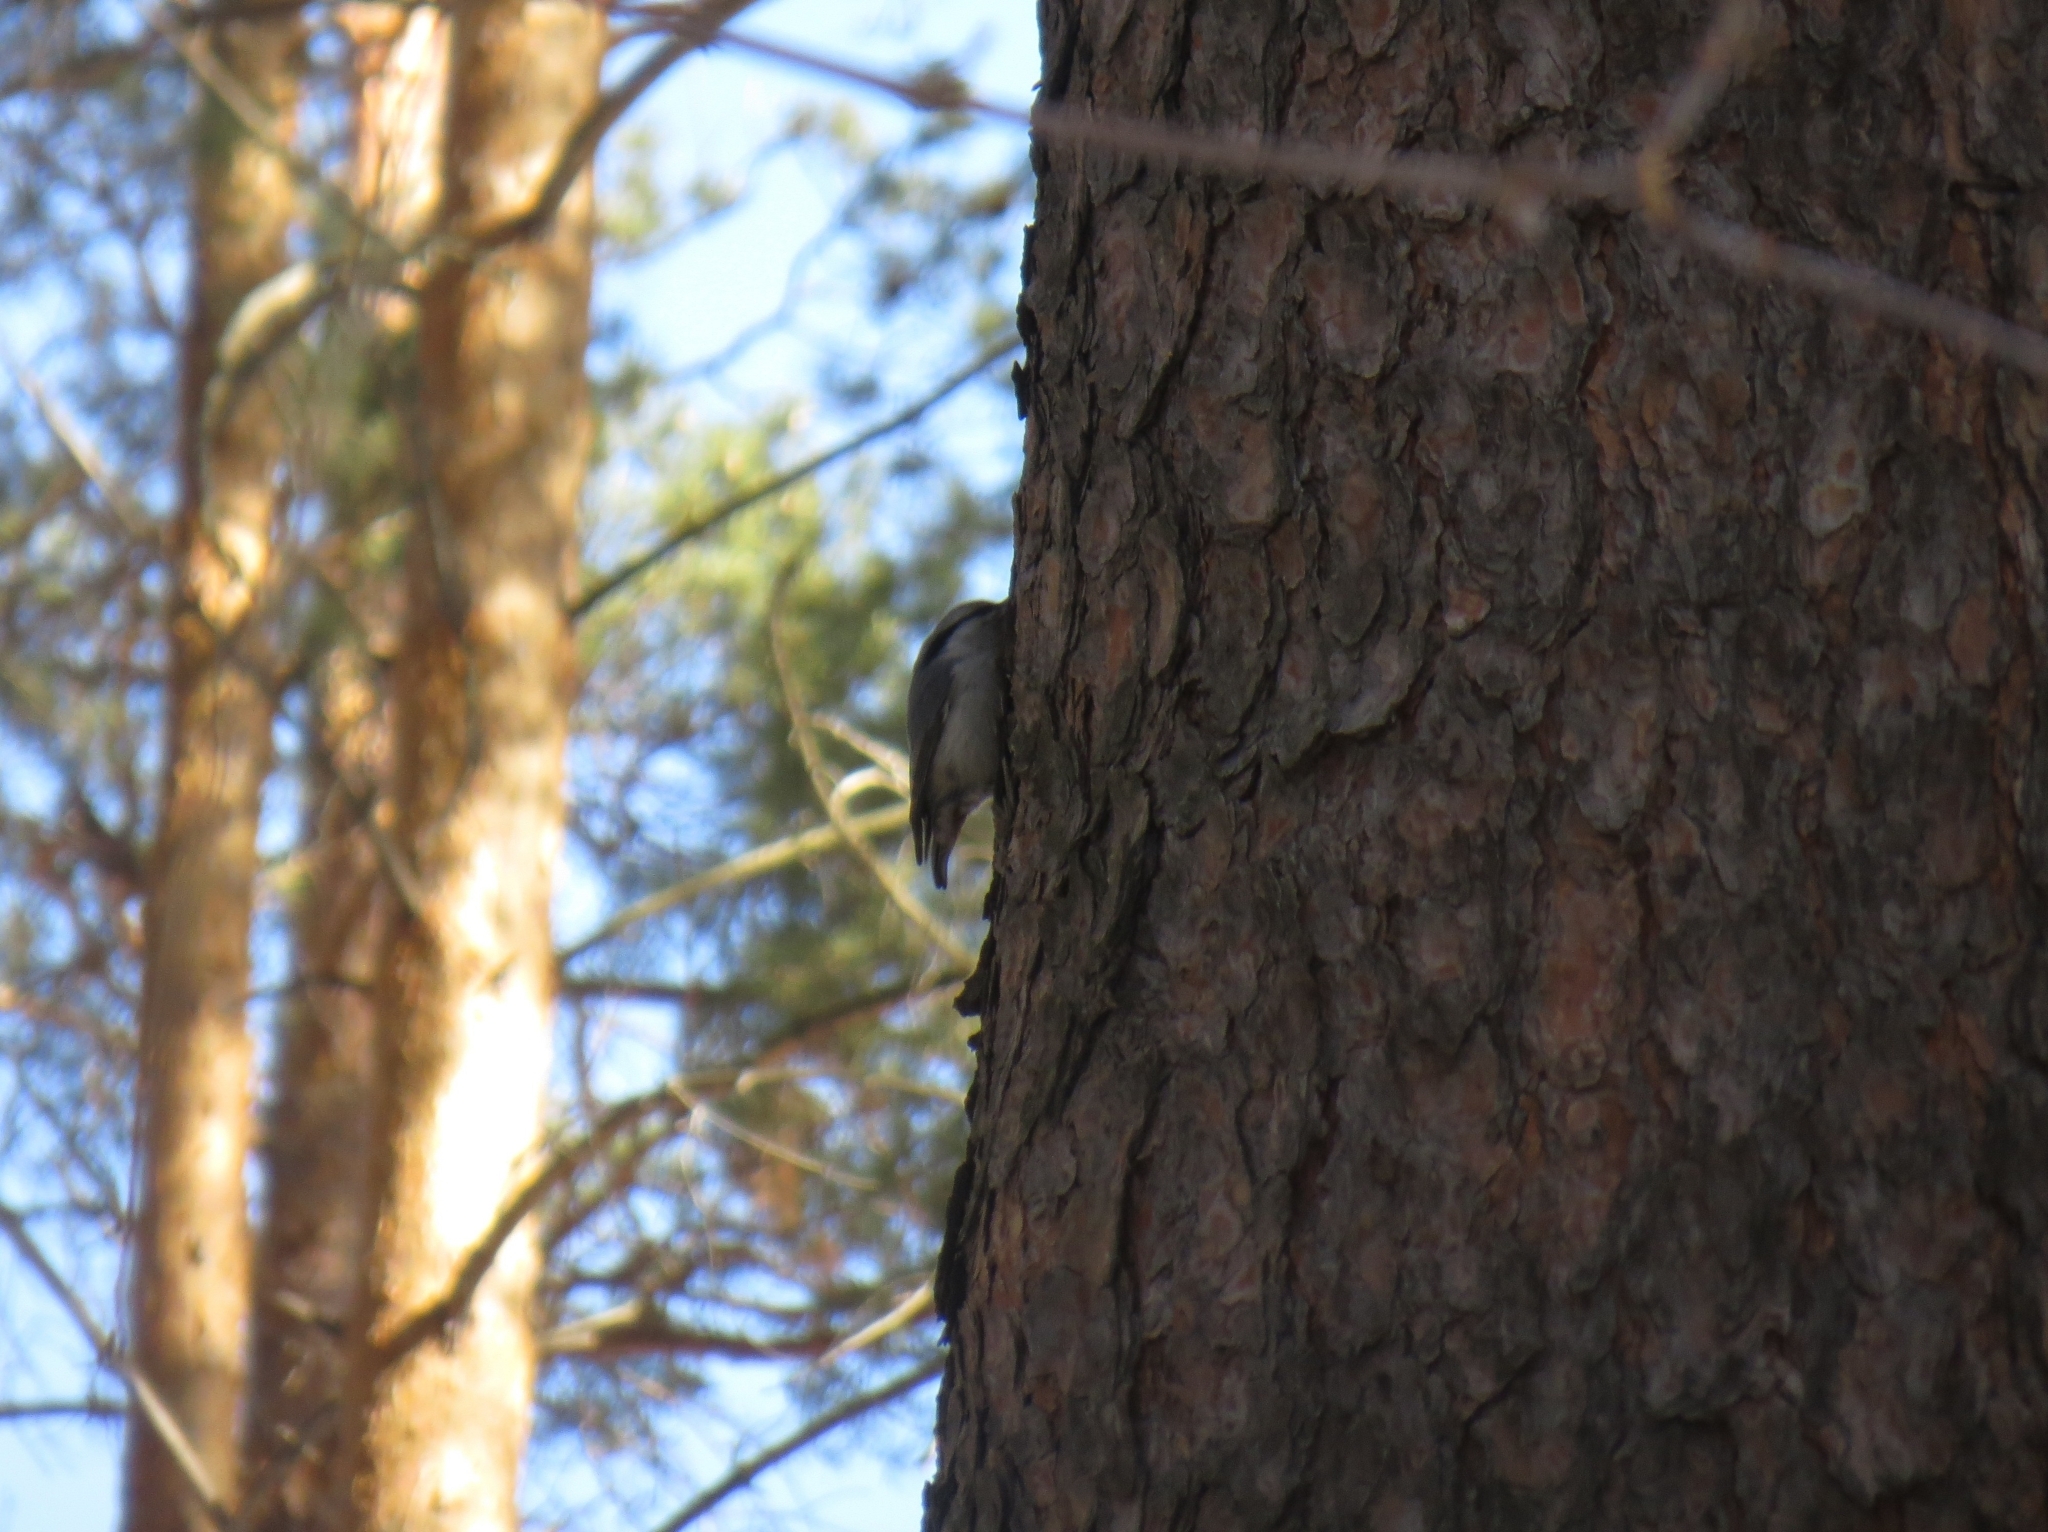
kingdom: Animalia
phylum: Chordata
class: Aves
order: Passeriformes
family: Sittidae
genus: Sitta
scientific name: Sitta europaea
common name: Eurasian nuthatch
